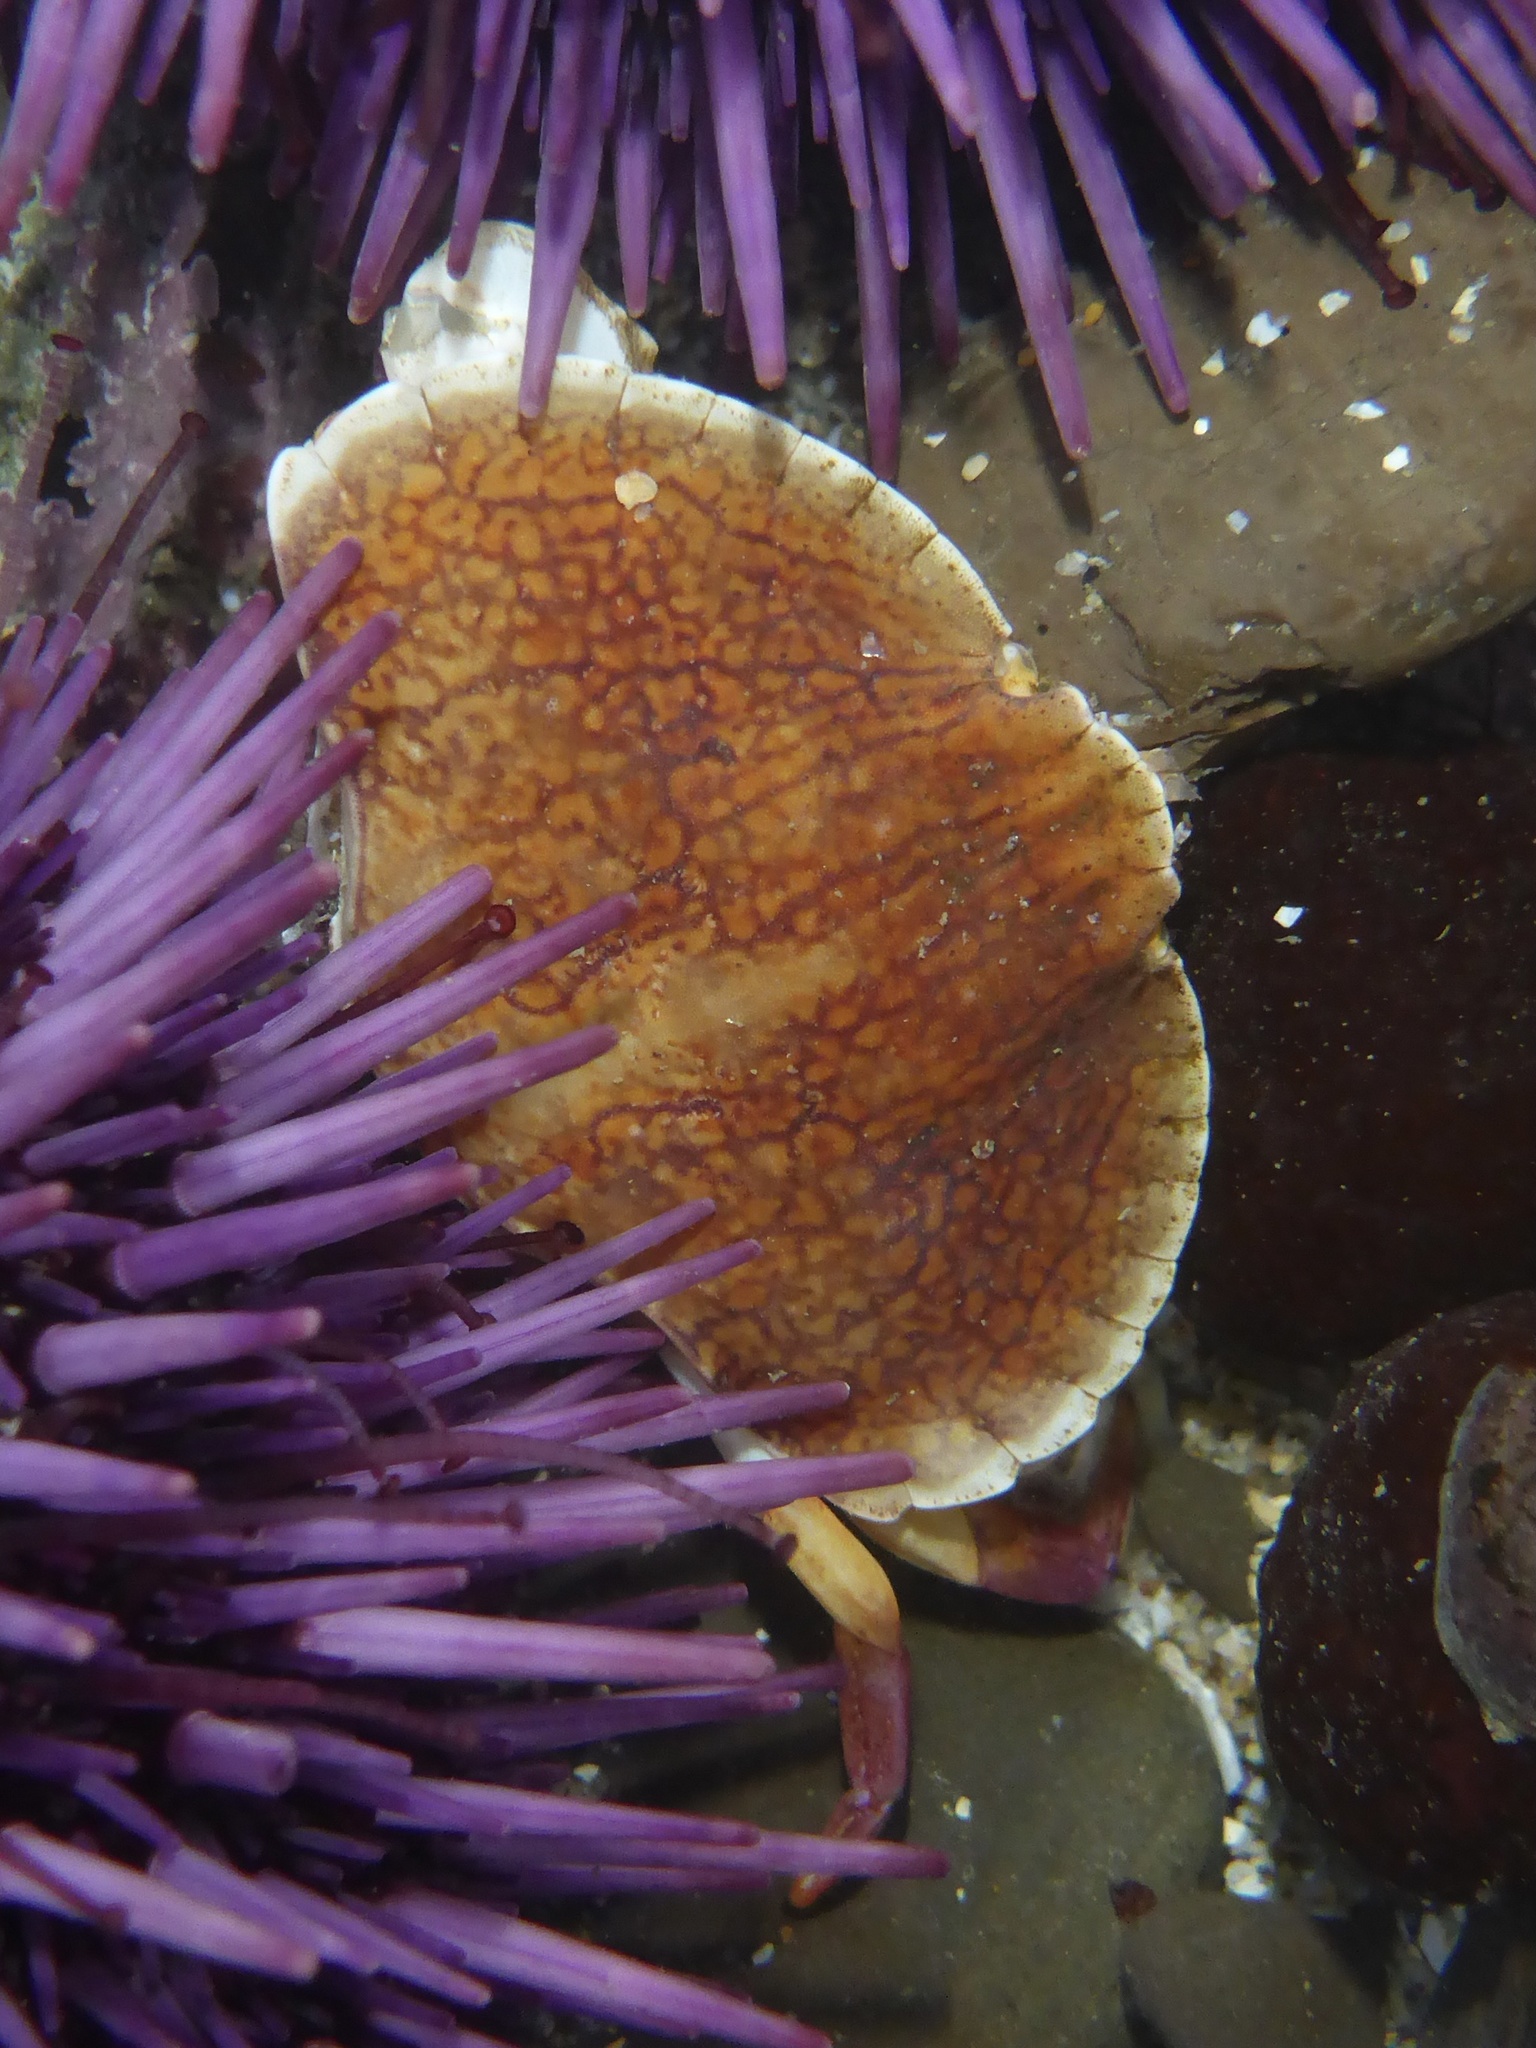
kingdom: Animalia
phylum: Arthropoda
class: Malacostraca
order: Decapoda
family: Cancridae
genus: Cancer
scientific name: Cancer productus
